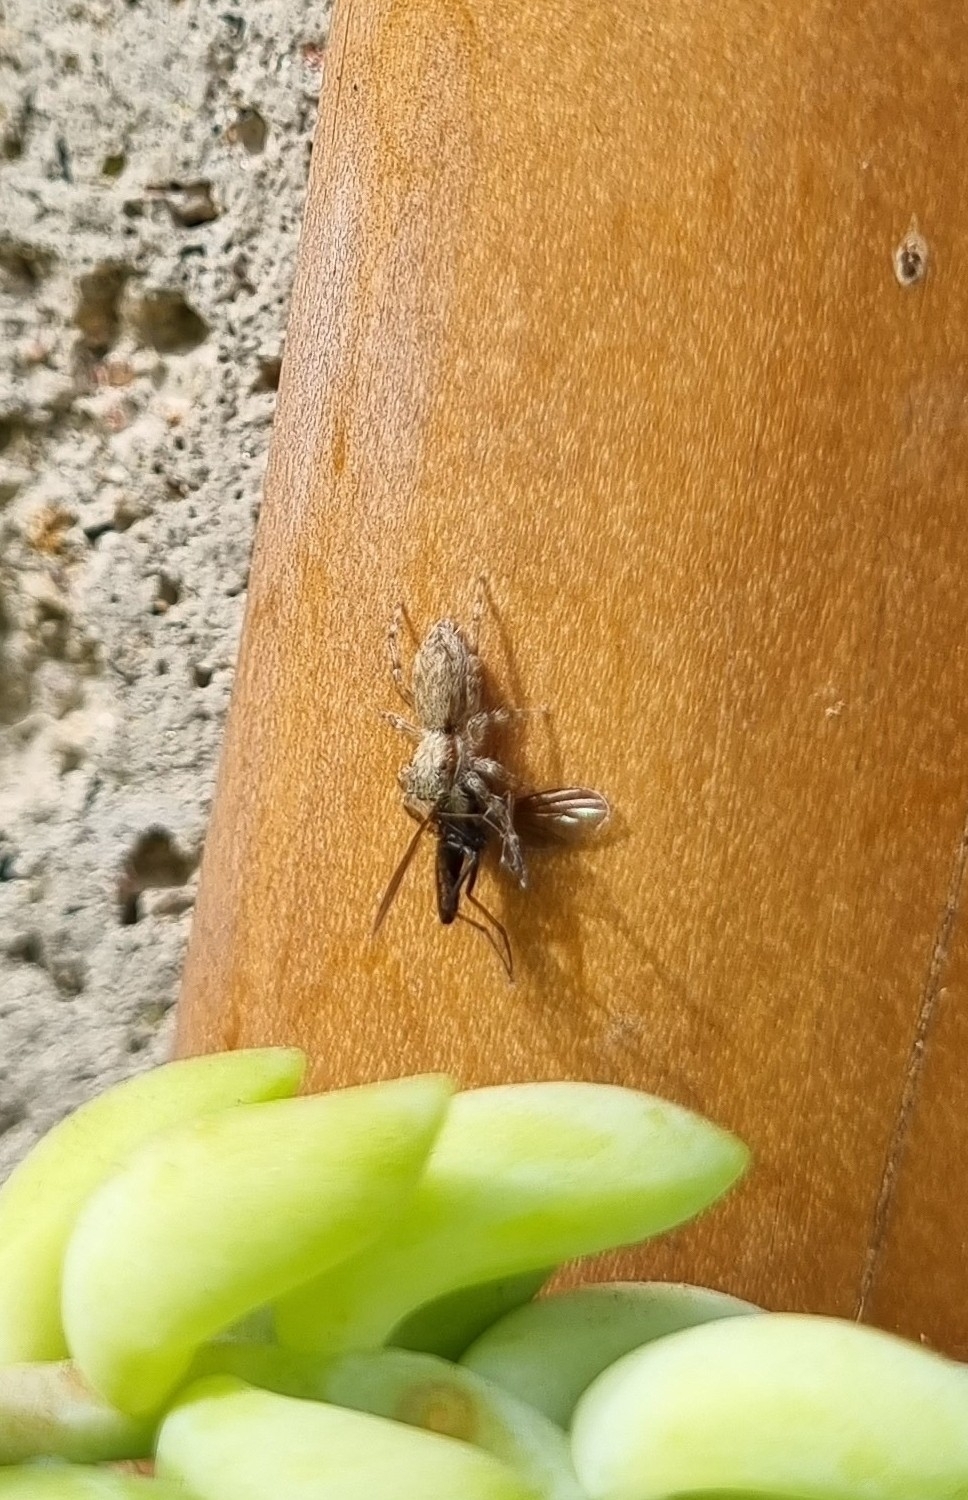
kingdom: Animalia
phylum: Arthropoda
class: Arachnida
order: Araneae
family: Salticidae
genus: Menemerus
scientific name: Menemerus bivittatus
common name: Gray wall jumper
